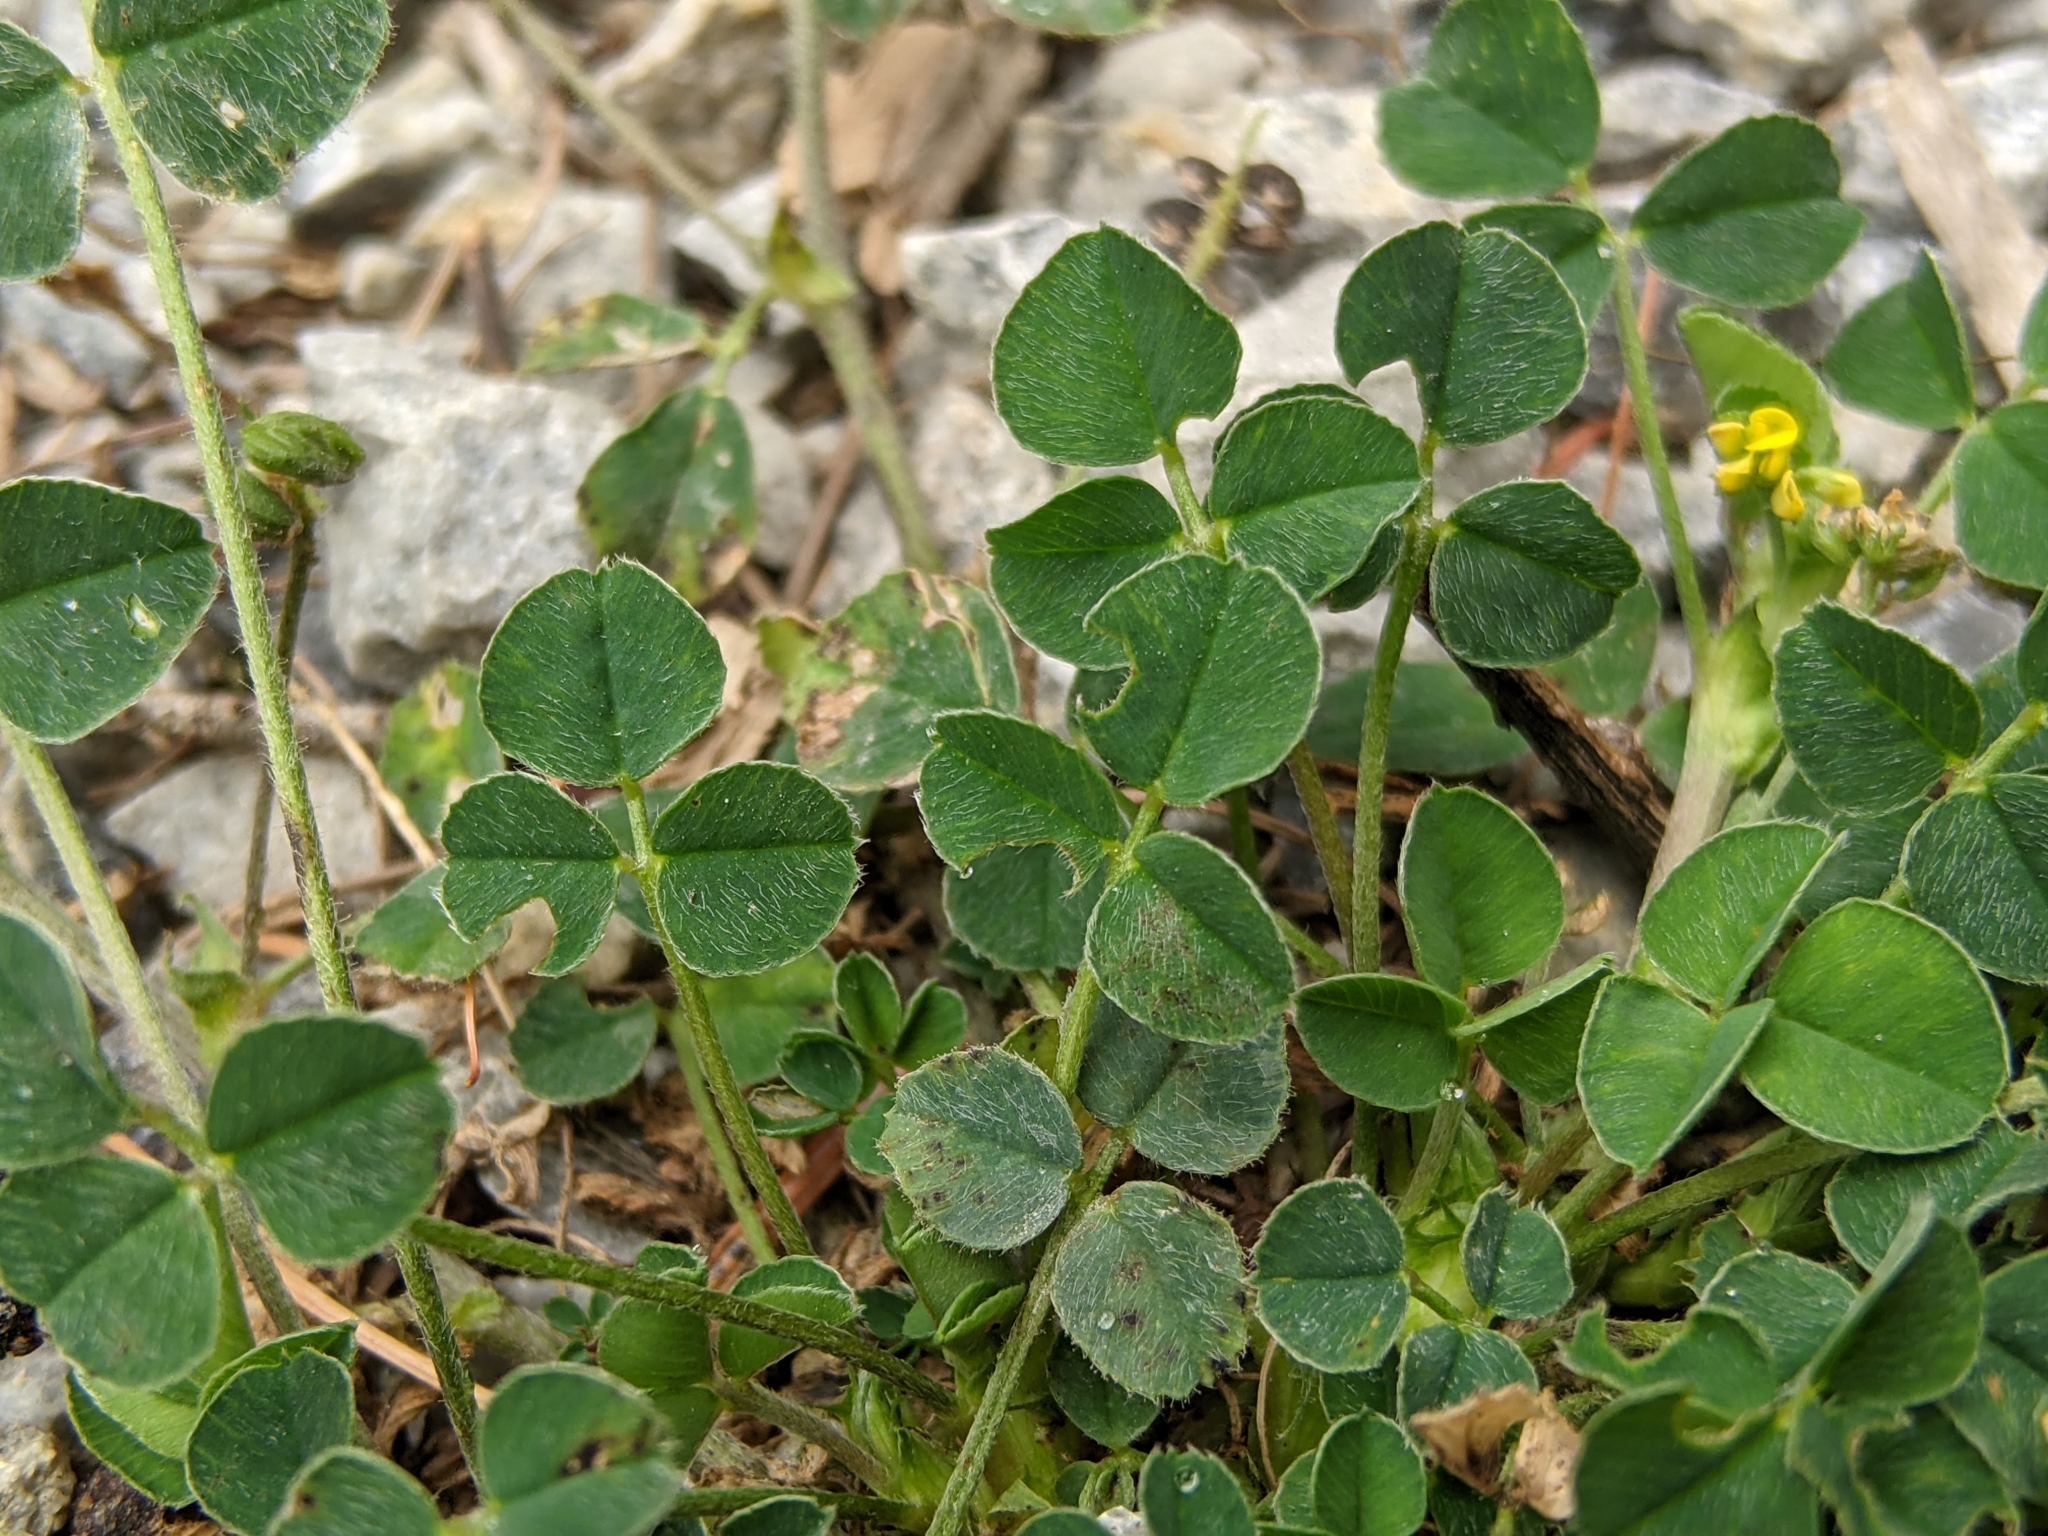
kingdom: Plantae
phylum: Tracheophyta
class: Magnoliopsida
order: Fabales
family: Fabaceae
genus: Medicago
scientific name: Medicago lupulina
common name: Black medick
